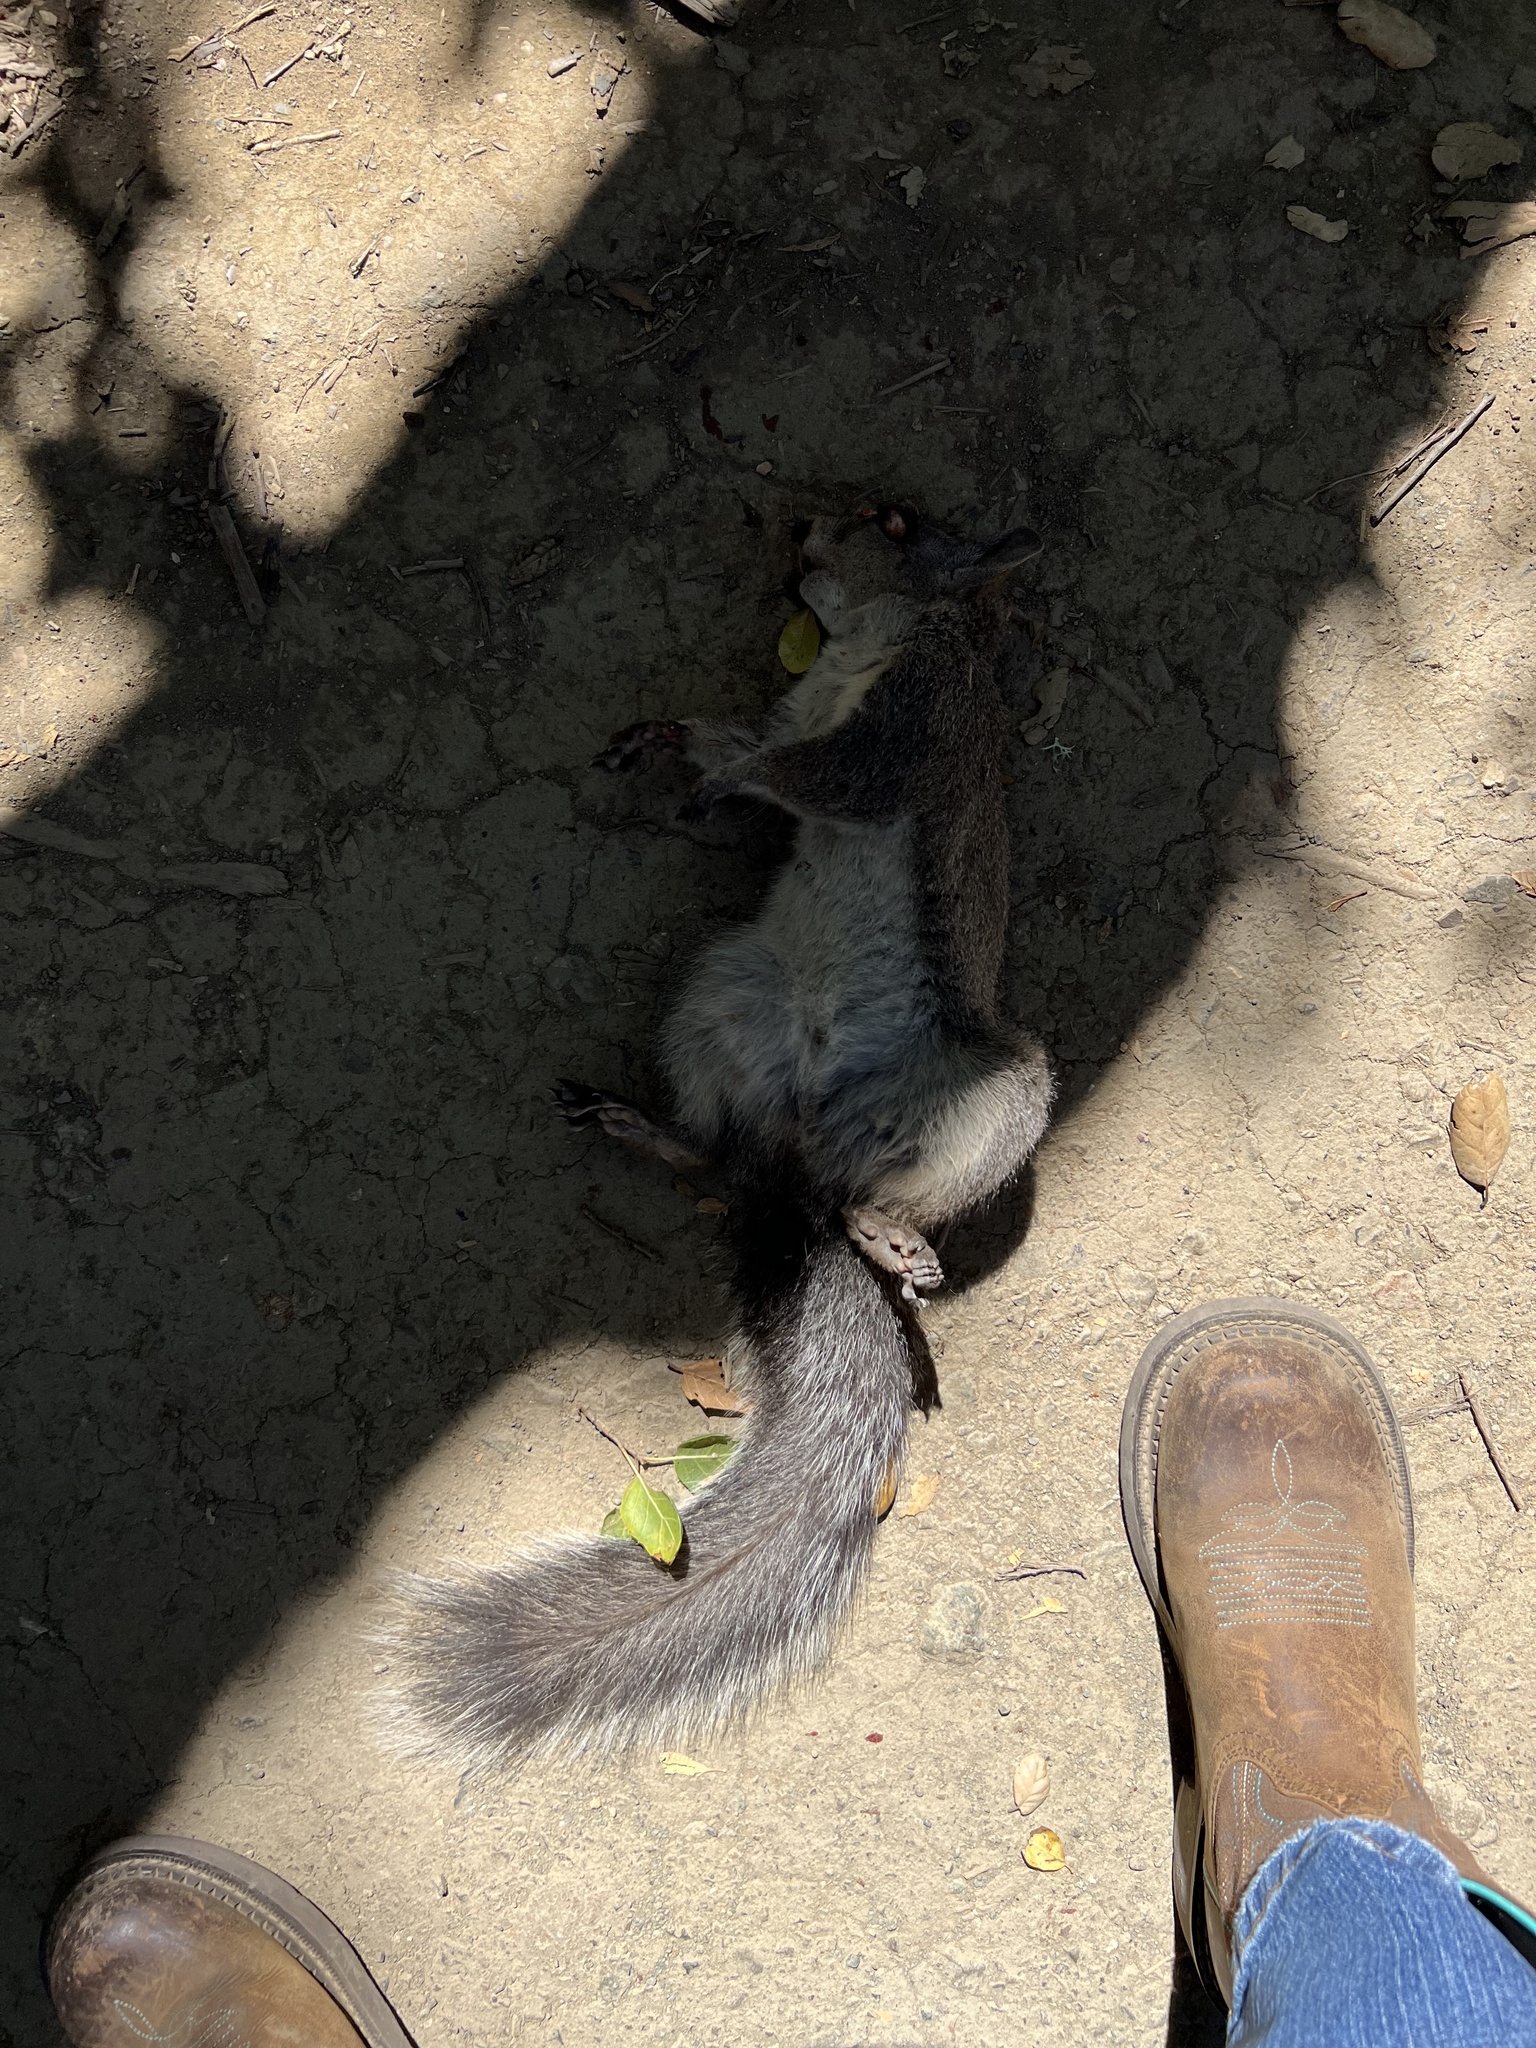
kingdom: Animalia
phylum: Chordata
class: Mammalia
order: Rodentia
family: Sciuridae
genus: Sciurus
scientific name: Sciurus griseus
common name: Western gray squirrel
